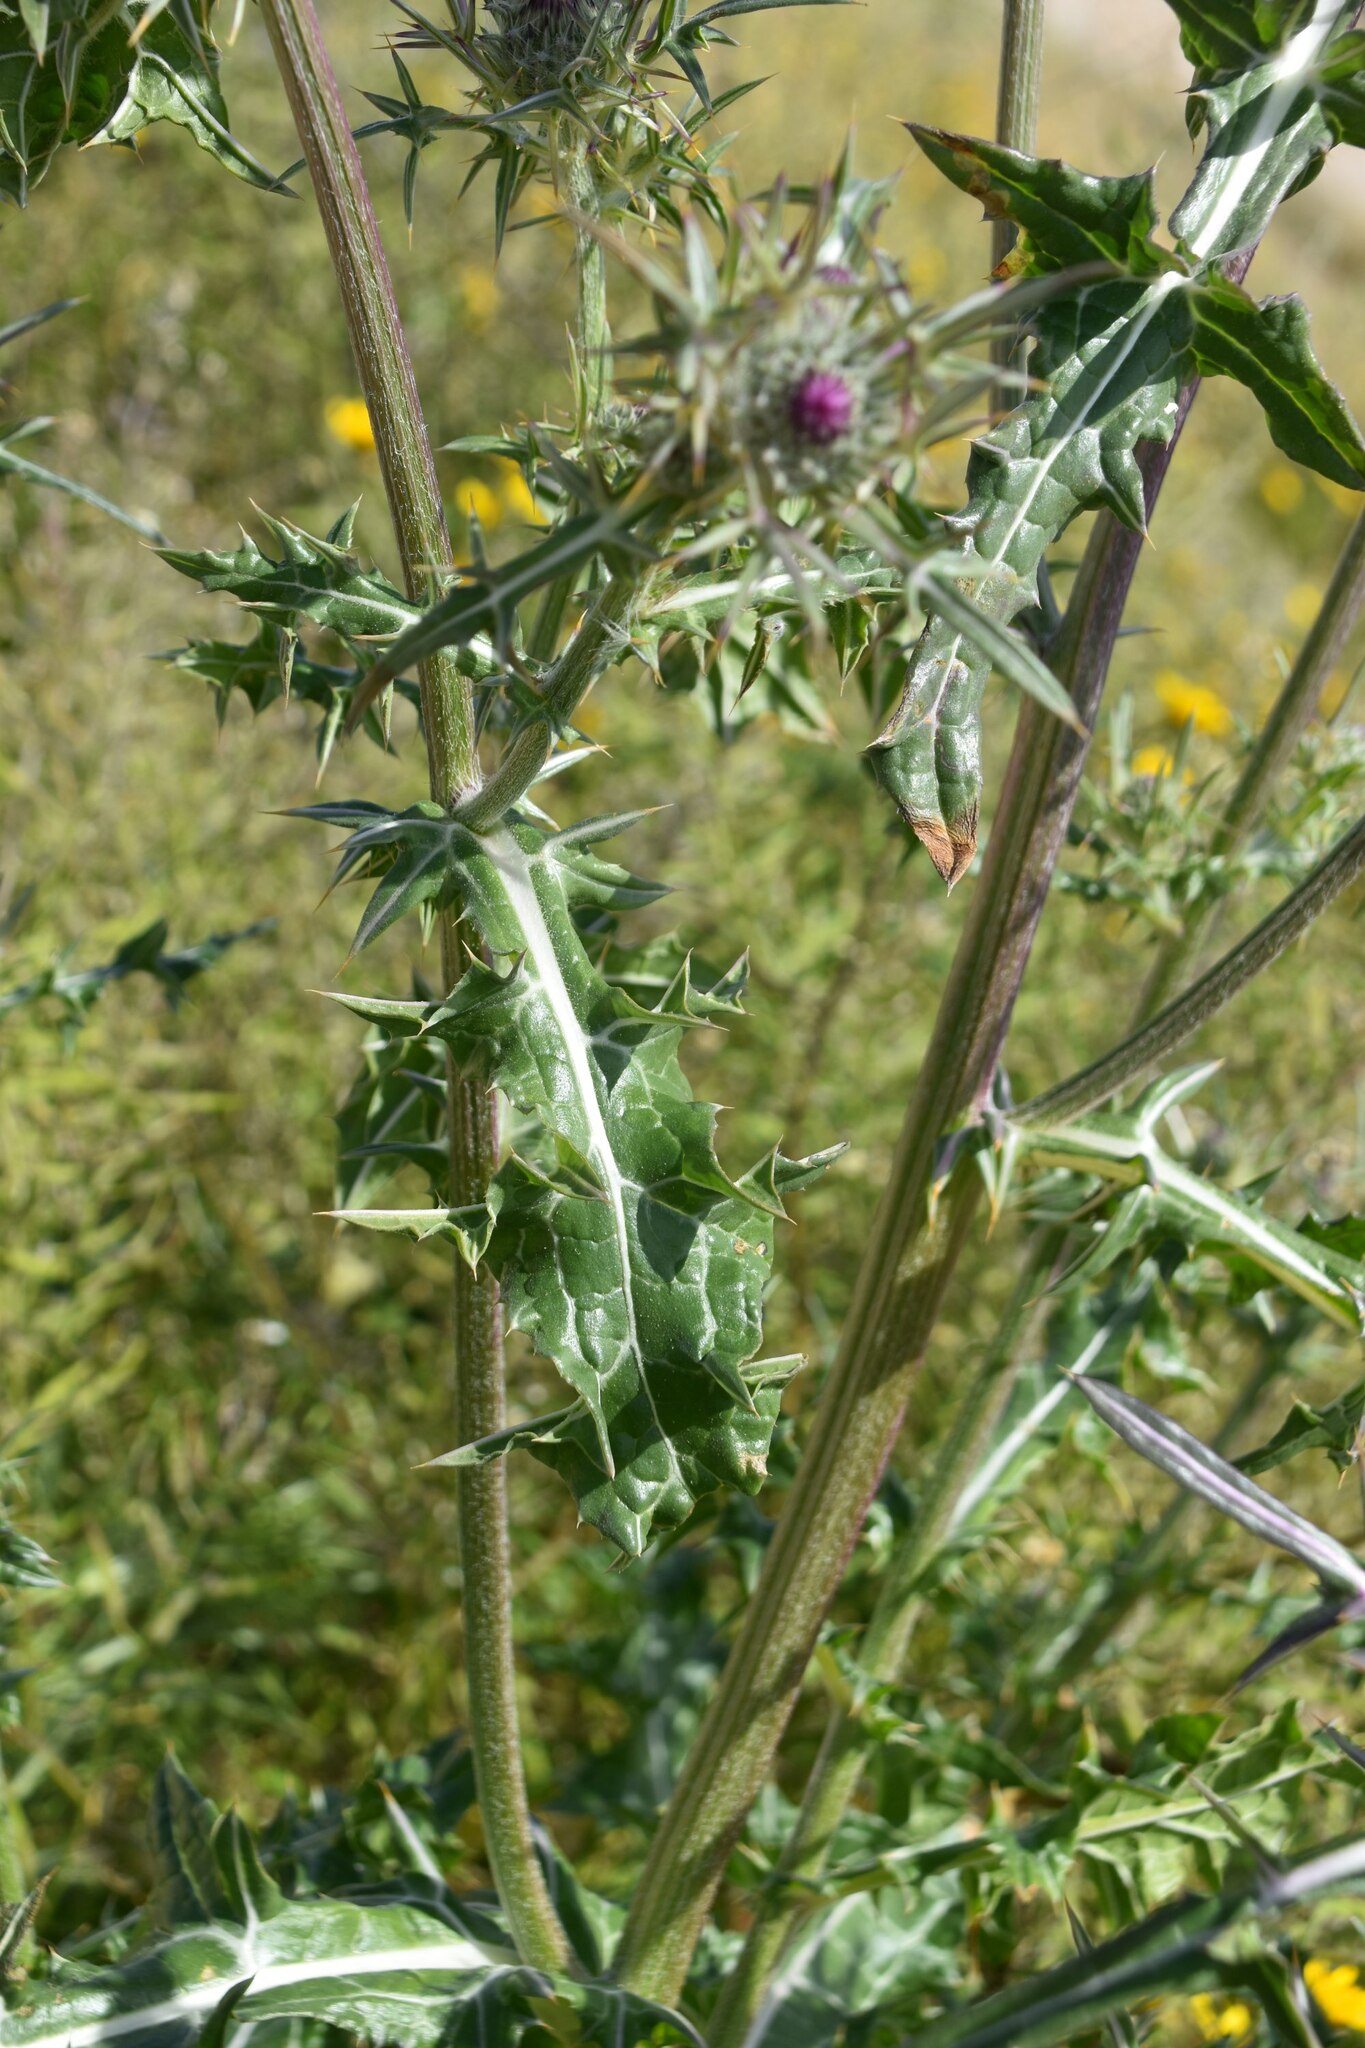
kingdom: Plantae
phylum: Tracheophyta
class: Magnoliopsida
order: Asterales
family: Asteraceae
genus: Notobasis
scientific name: Notobasis syriaca
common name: Syrian thistle
